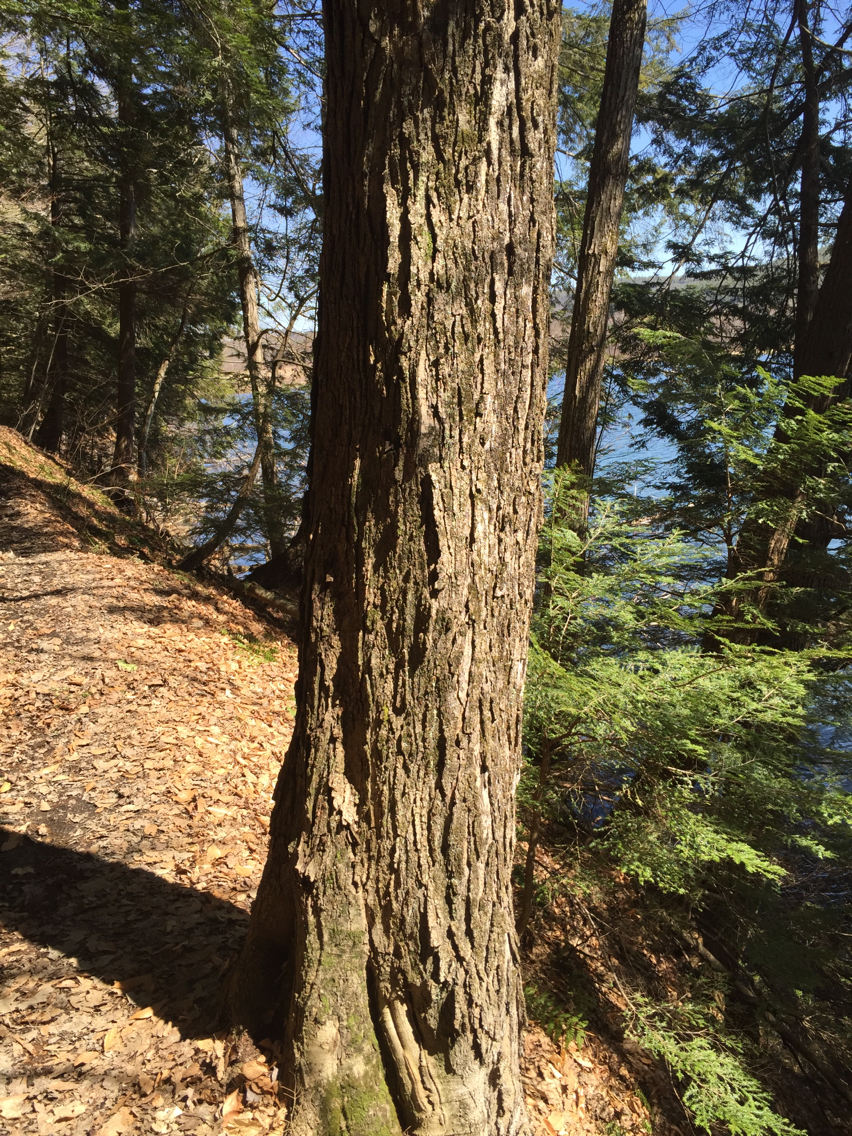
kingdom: Plantae
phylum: Tracheophyta
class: Magnoliopsida
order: Sapindales
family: Sapindaceae
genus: Acer
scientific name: Acer saccharum
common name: Sugar maple
